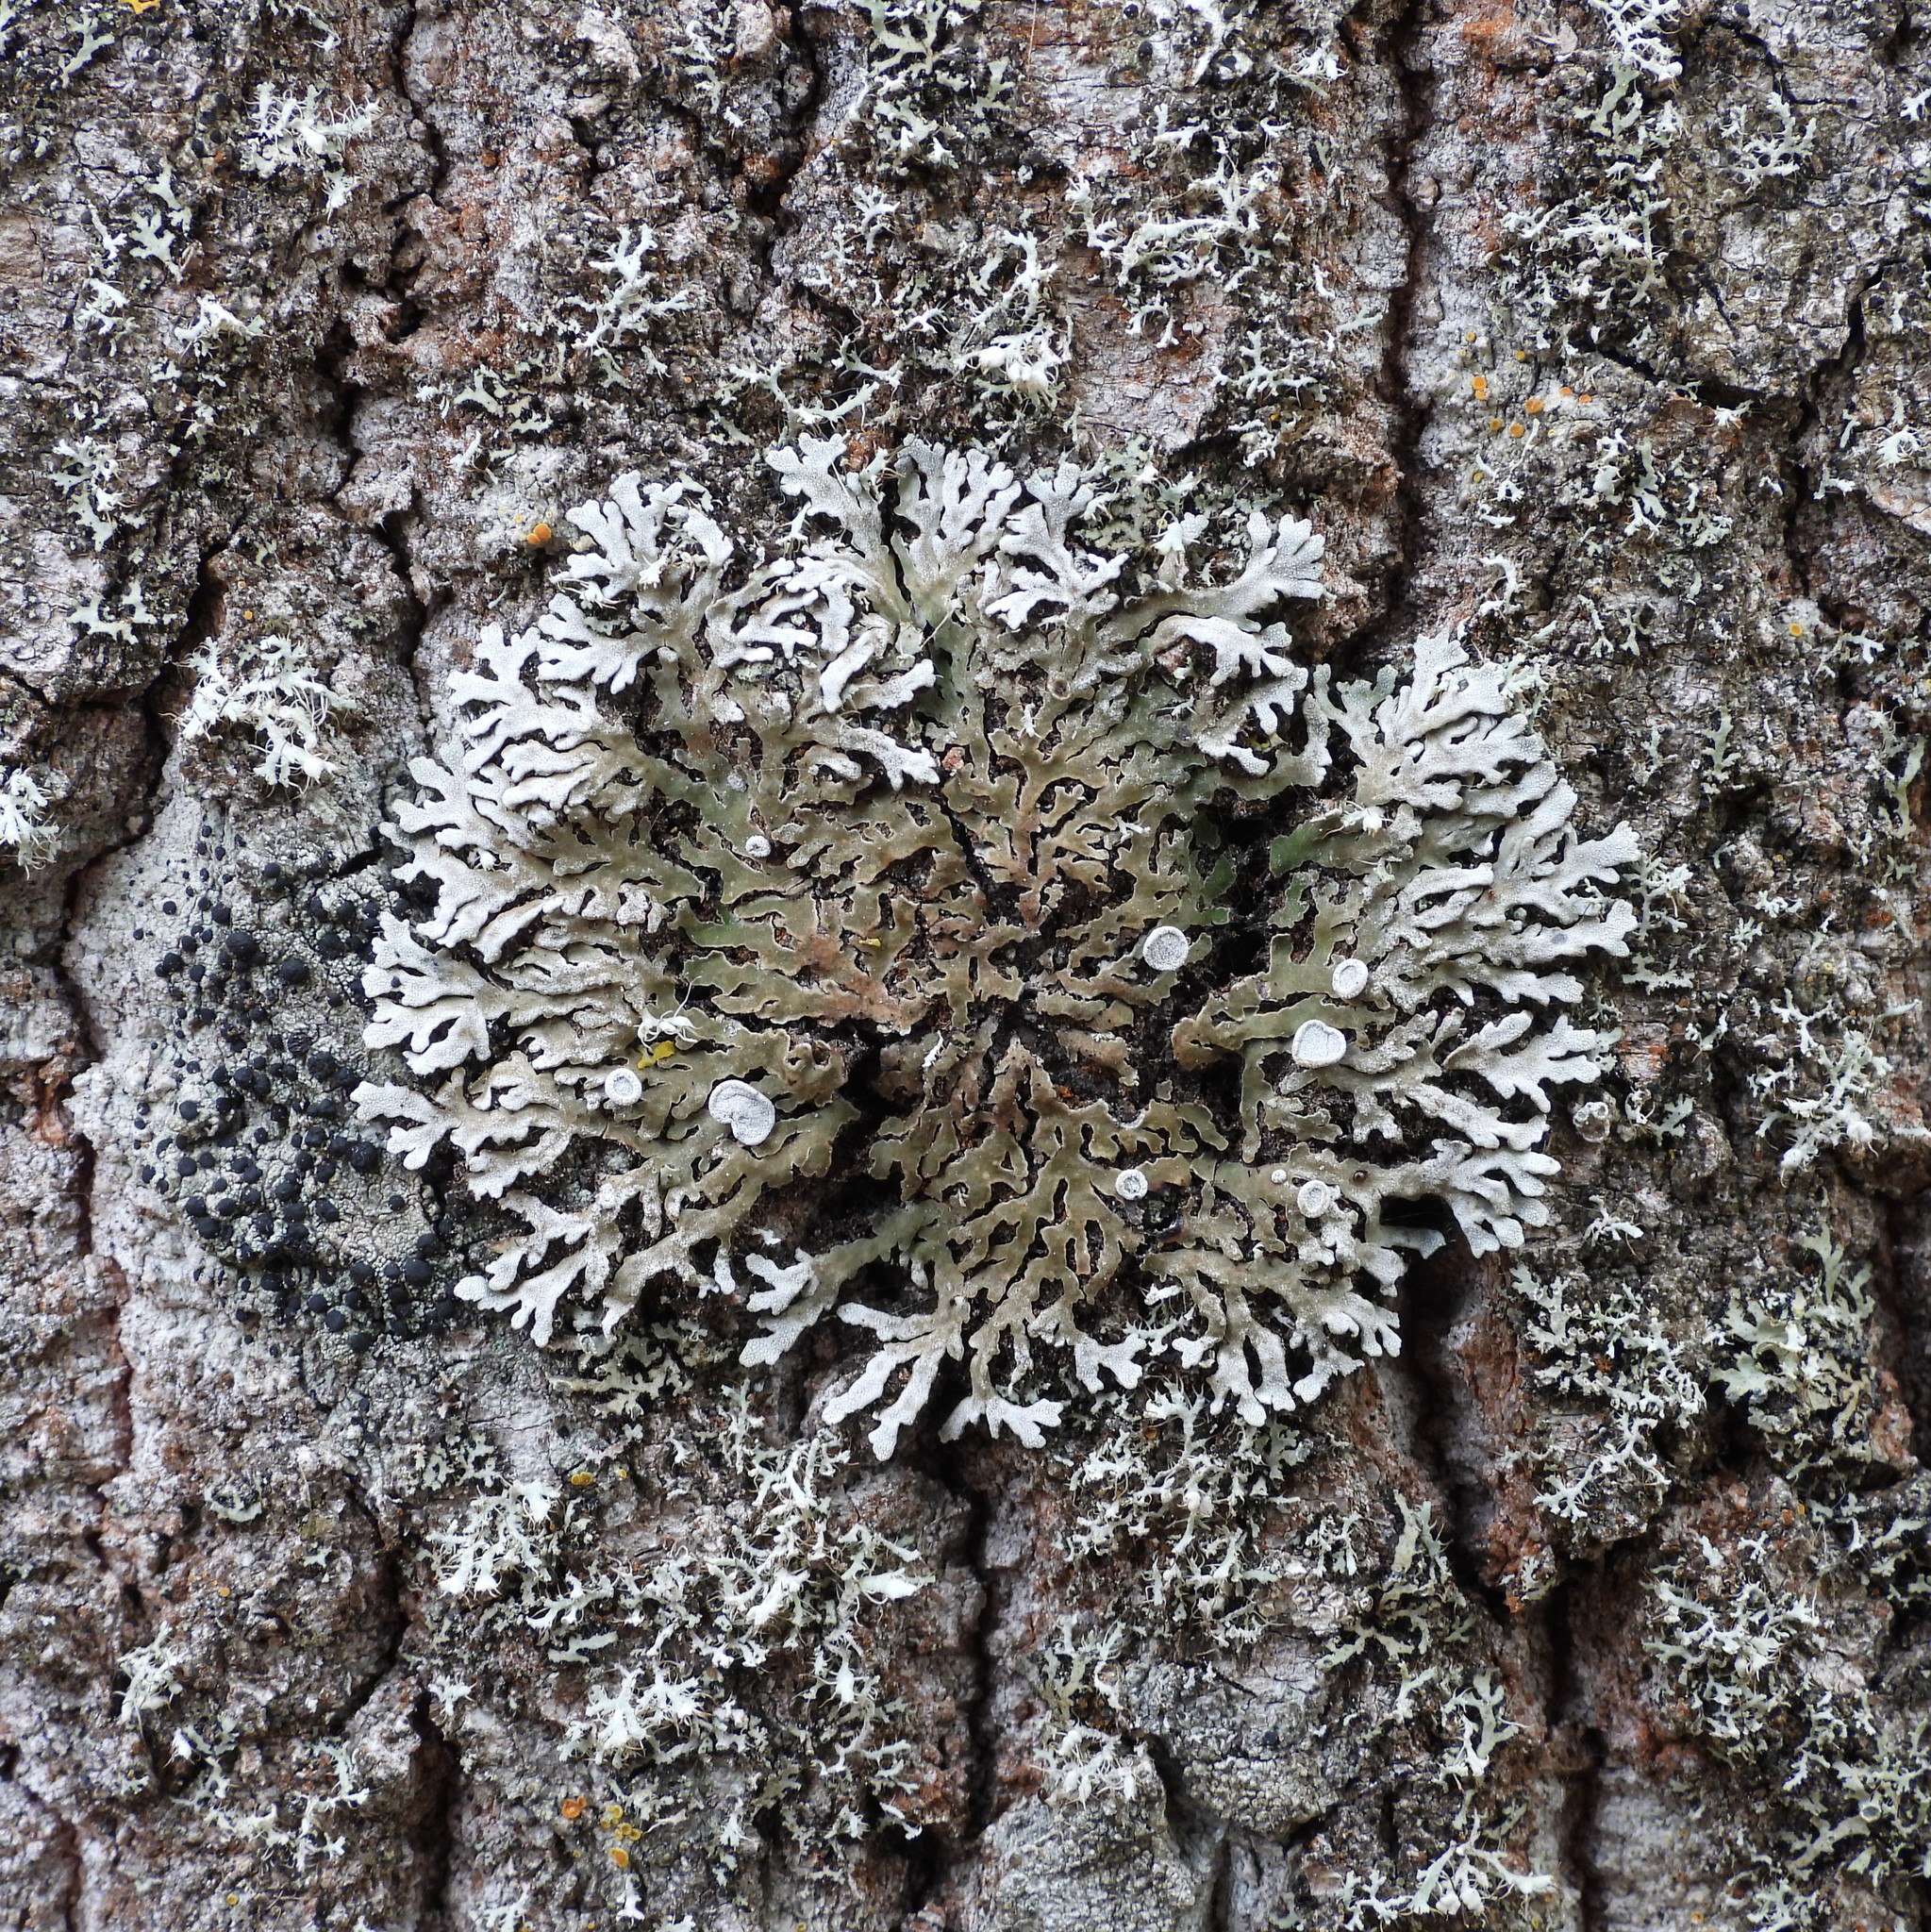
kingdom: Fungi
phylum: Ascomycota
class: Lecanoromycetes
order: Caliciales
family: Physciaceae
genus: Physconia
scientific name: Physconia distorta
